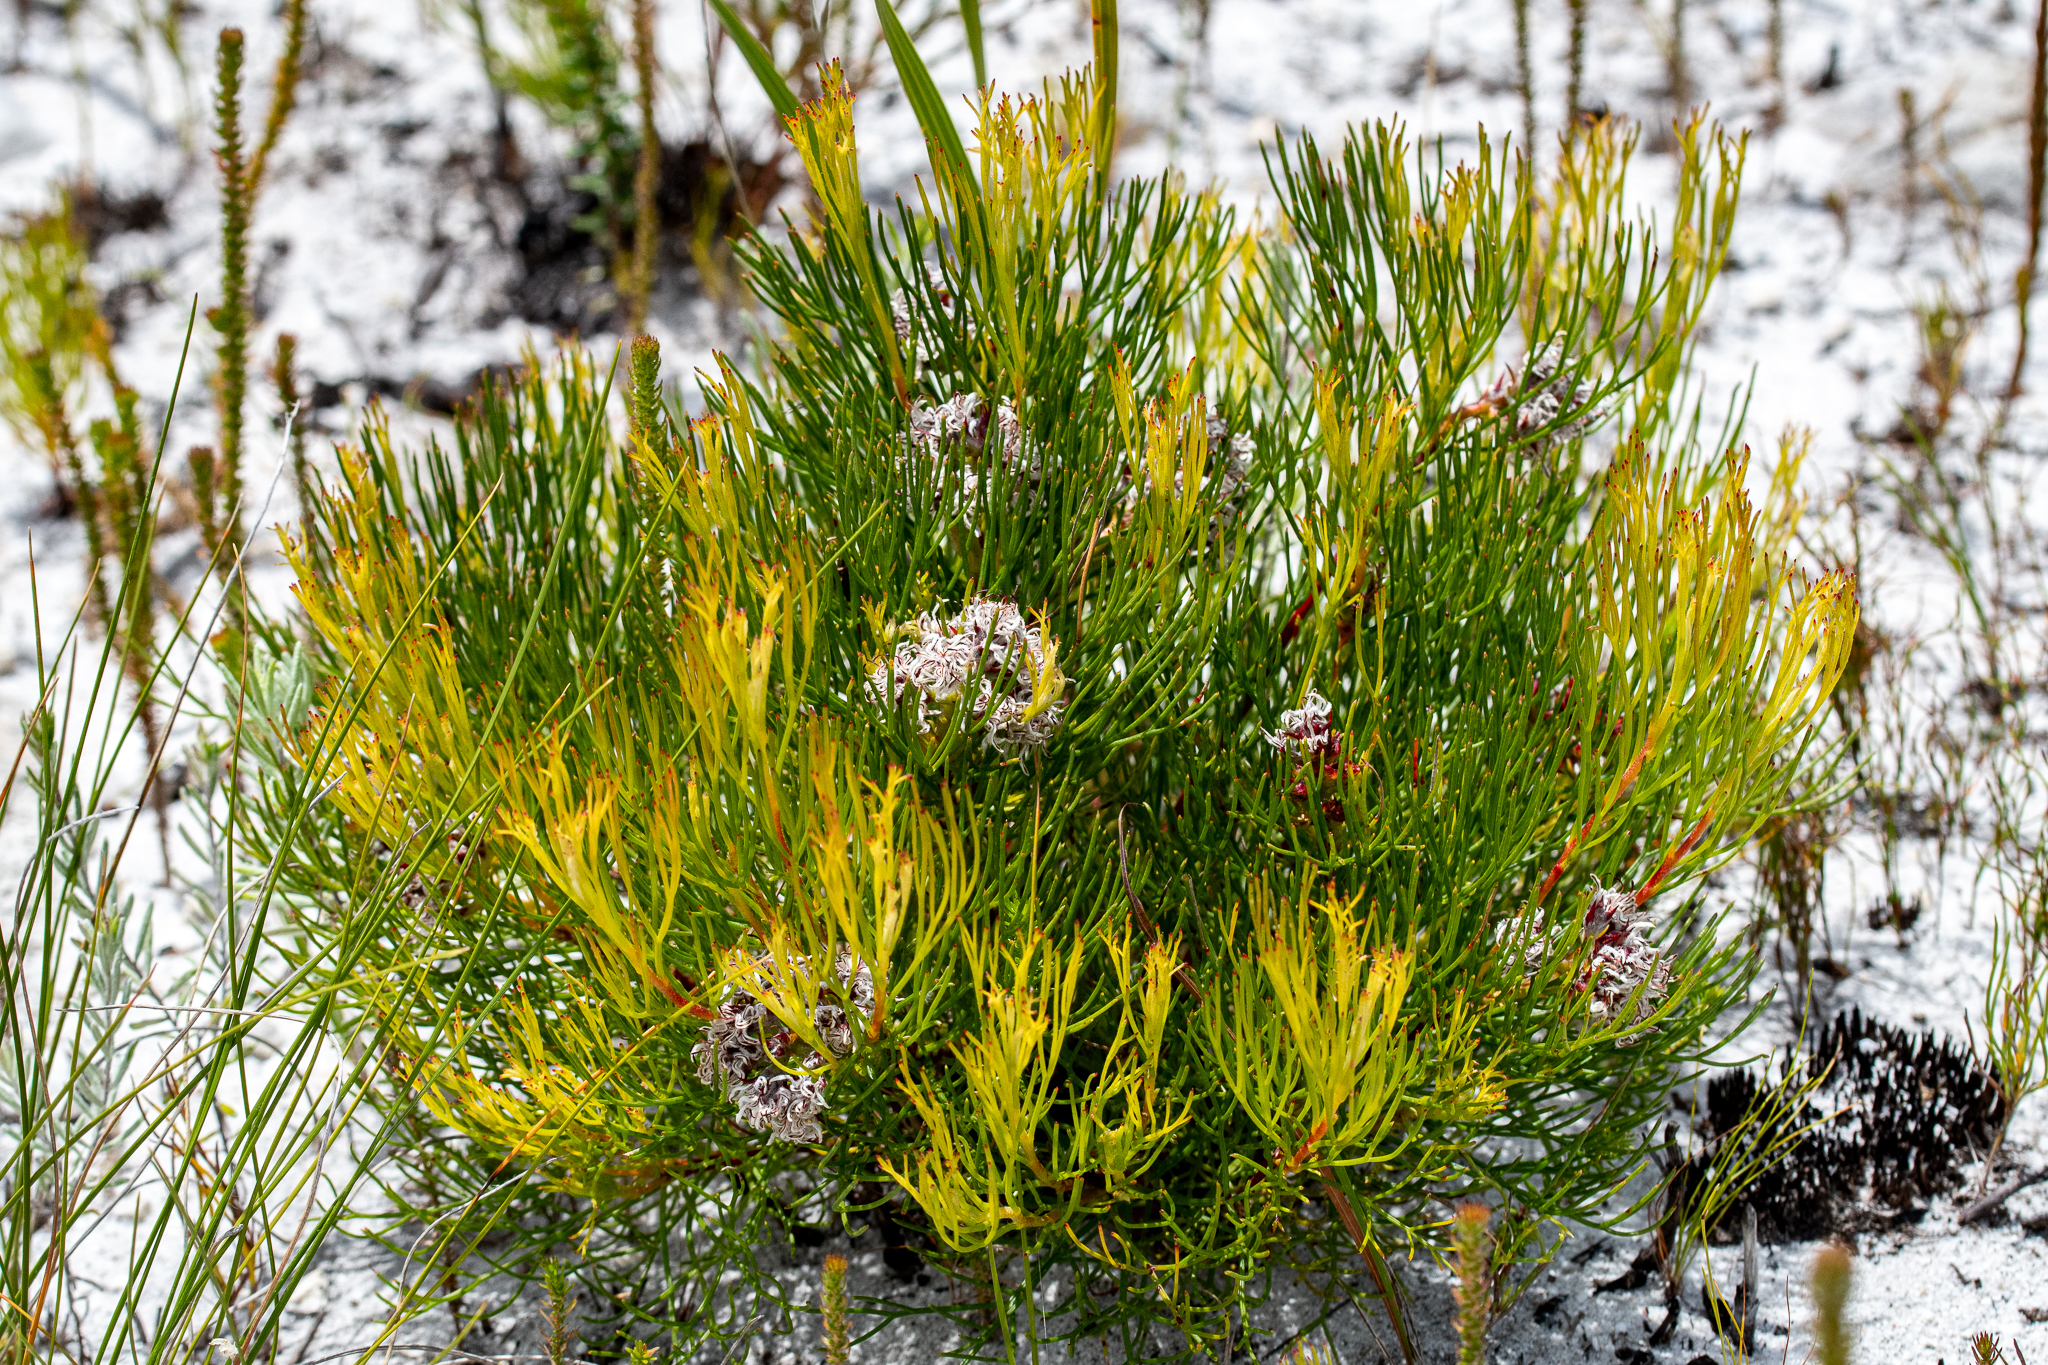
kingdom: Plantae
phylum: Tracheophyta
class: Magnoliopsida
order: Proteales
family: Proteaceae
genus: Serruria
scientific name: Serruria rubricaulis
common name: Red-stem spiderhead
